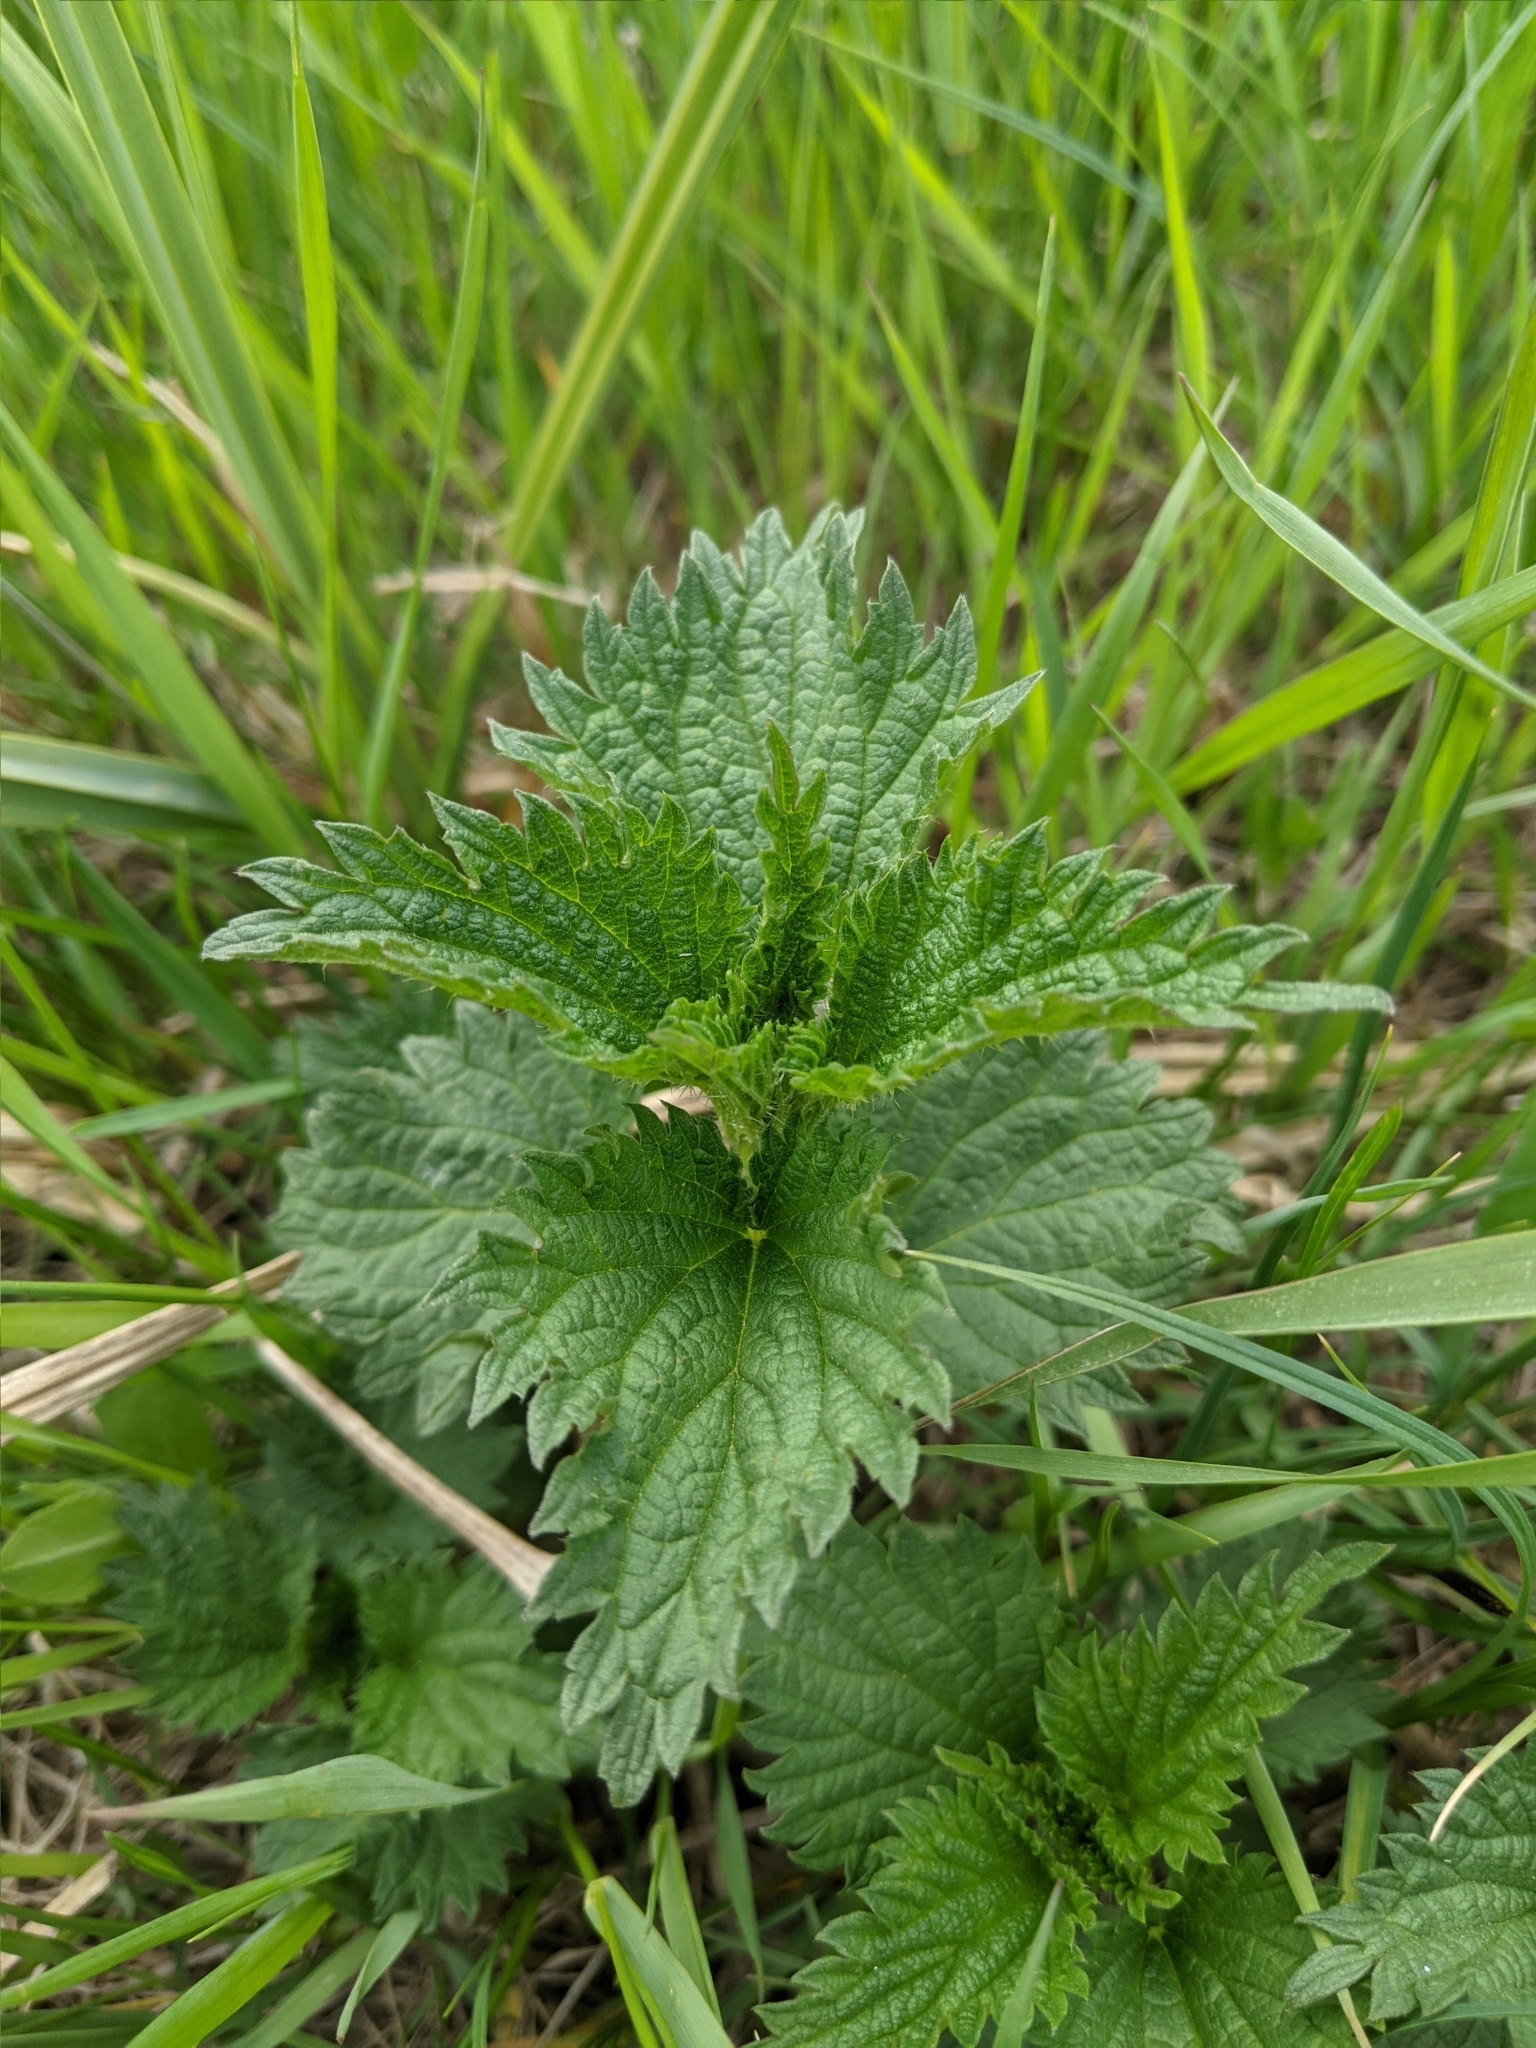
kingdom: Plantae
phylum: Tracheophyta
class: Magnoliopsida
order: Rosales
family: Urticaceae
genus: Urtica
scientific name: Urtica dioica
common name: Common nettle
